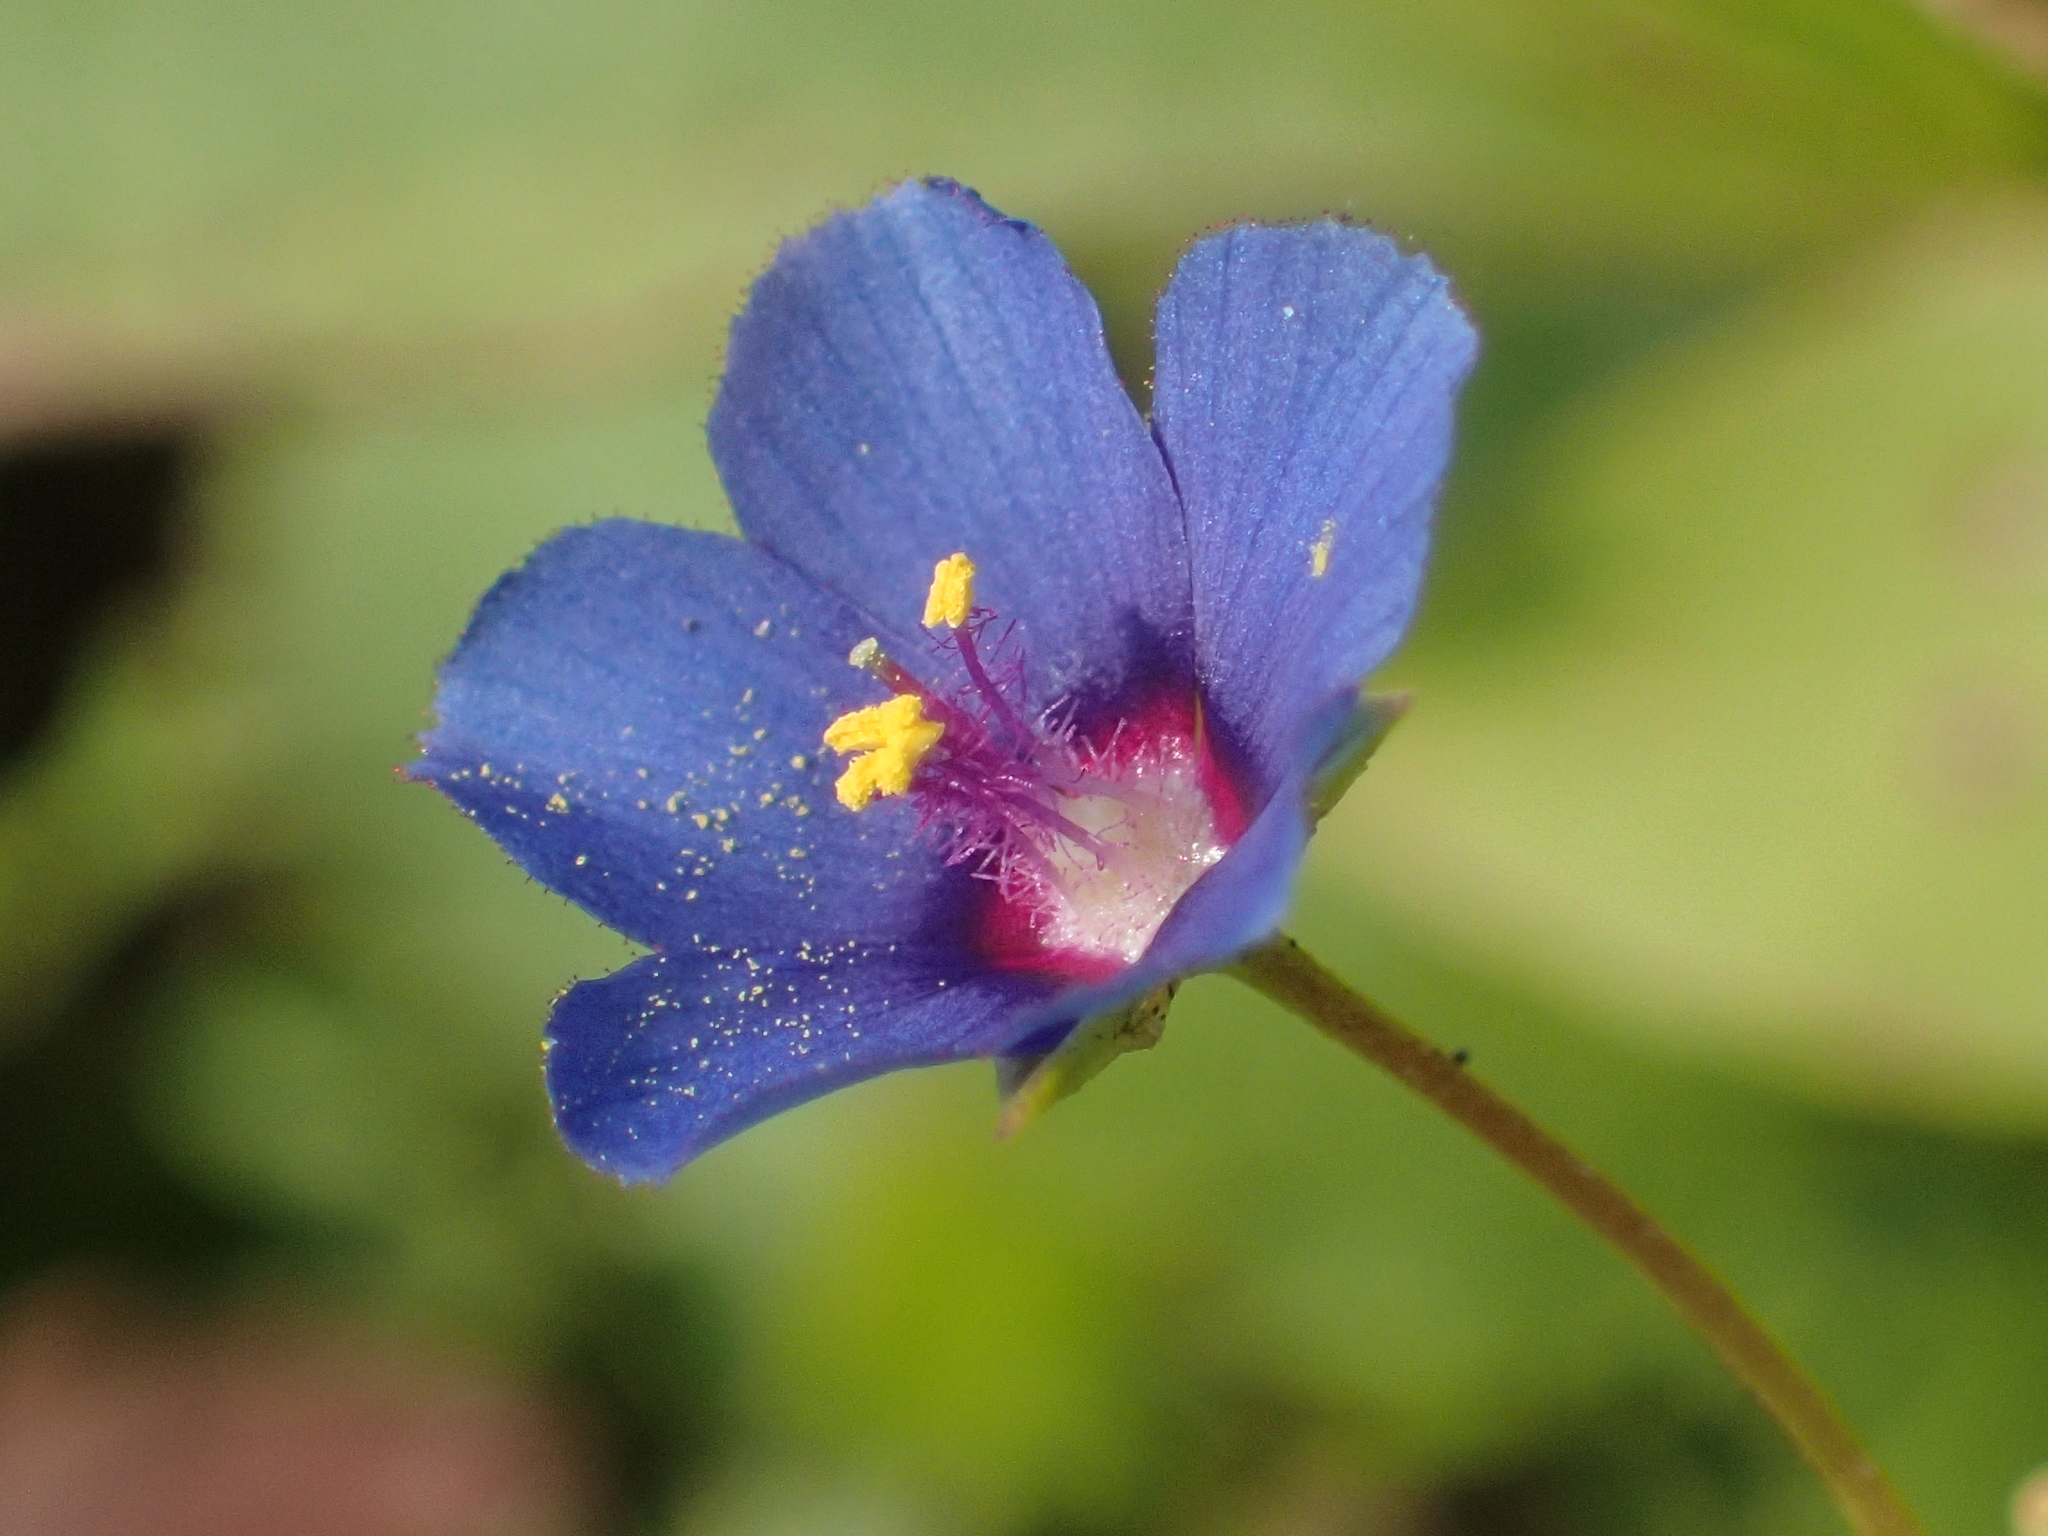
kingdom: Plantae
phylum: Tracheophyta
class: Magnoliopsida
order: Ericales
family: Primulaceae
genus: Lysimachia
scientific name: Lysimachia loeflingii
